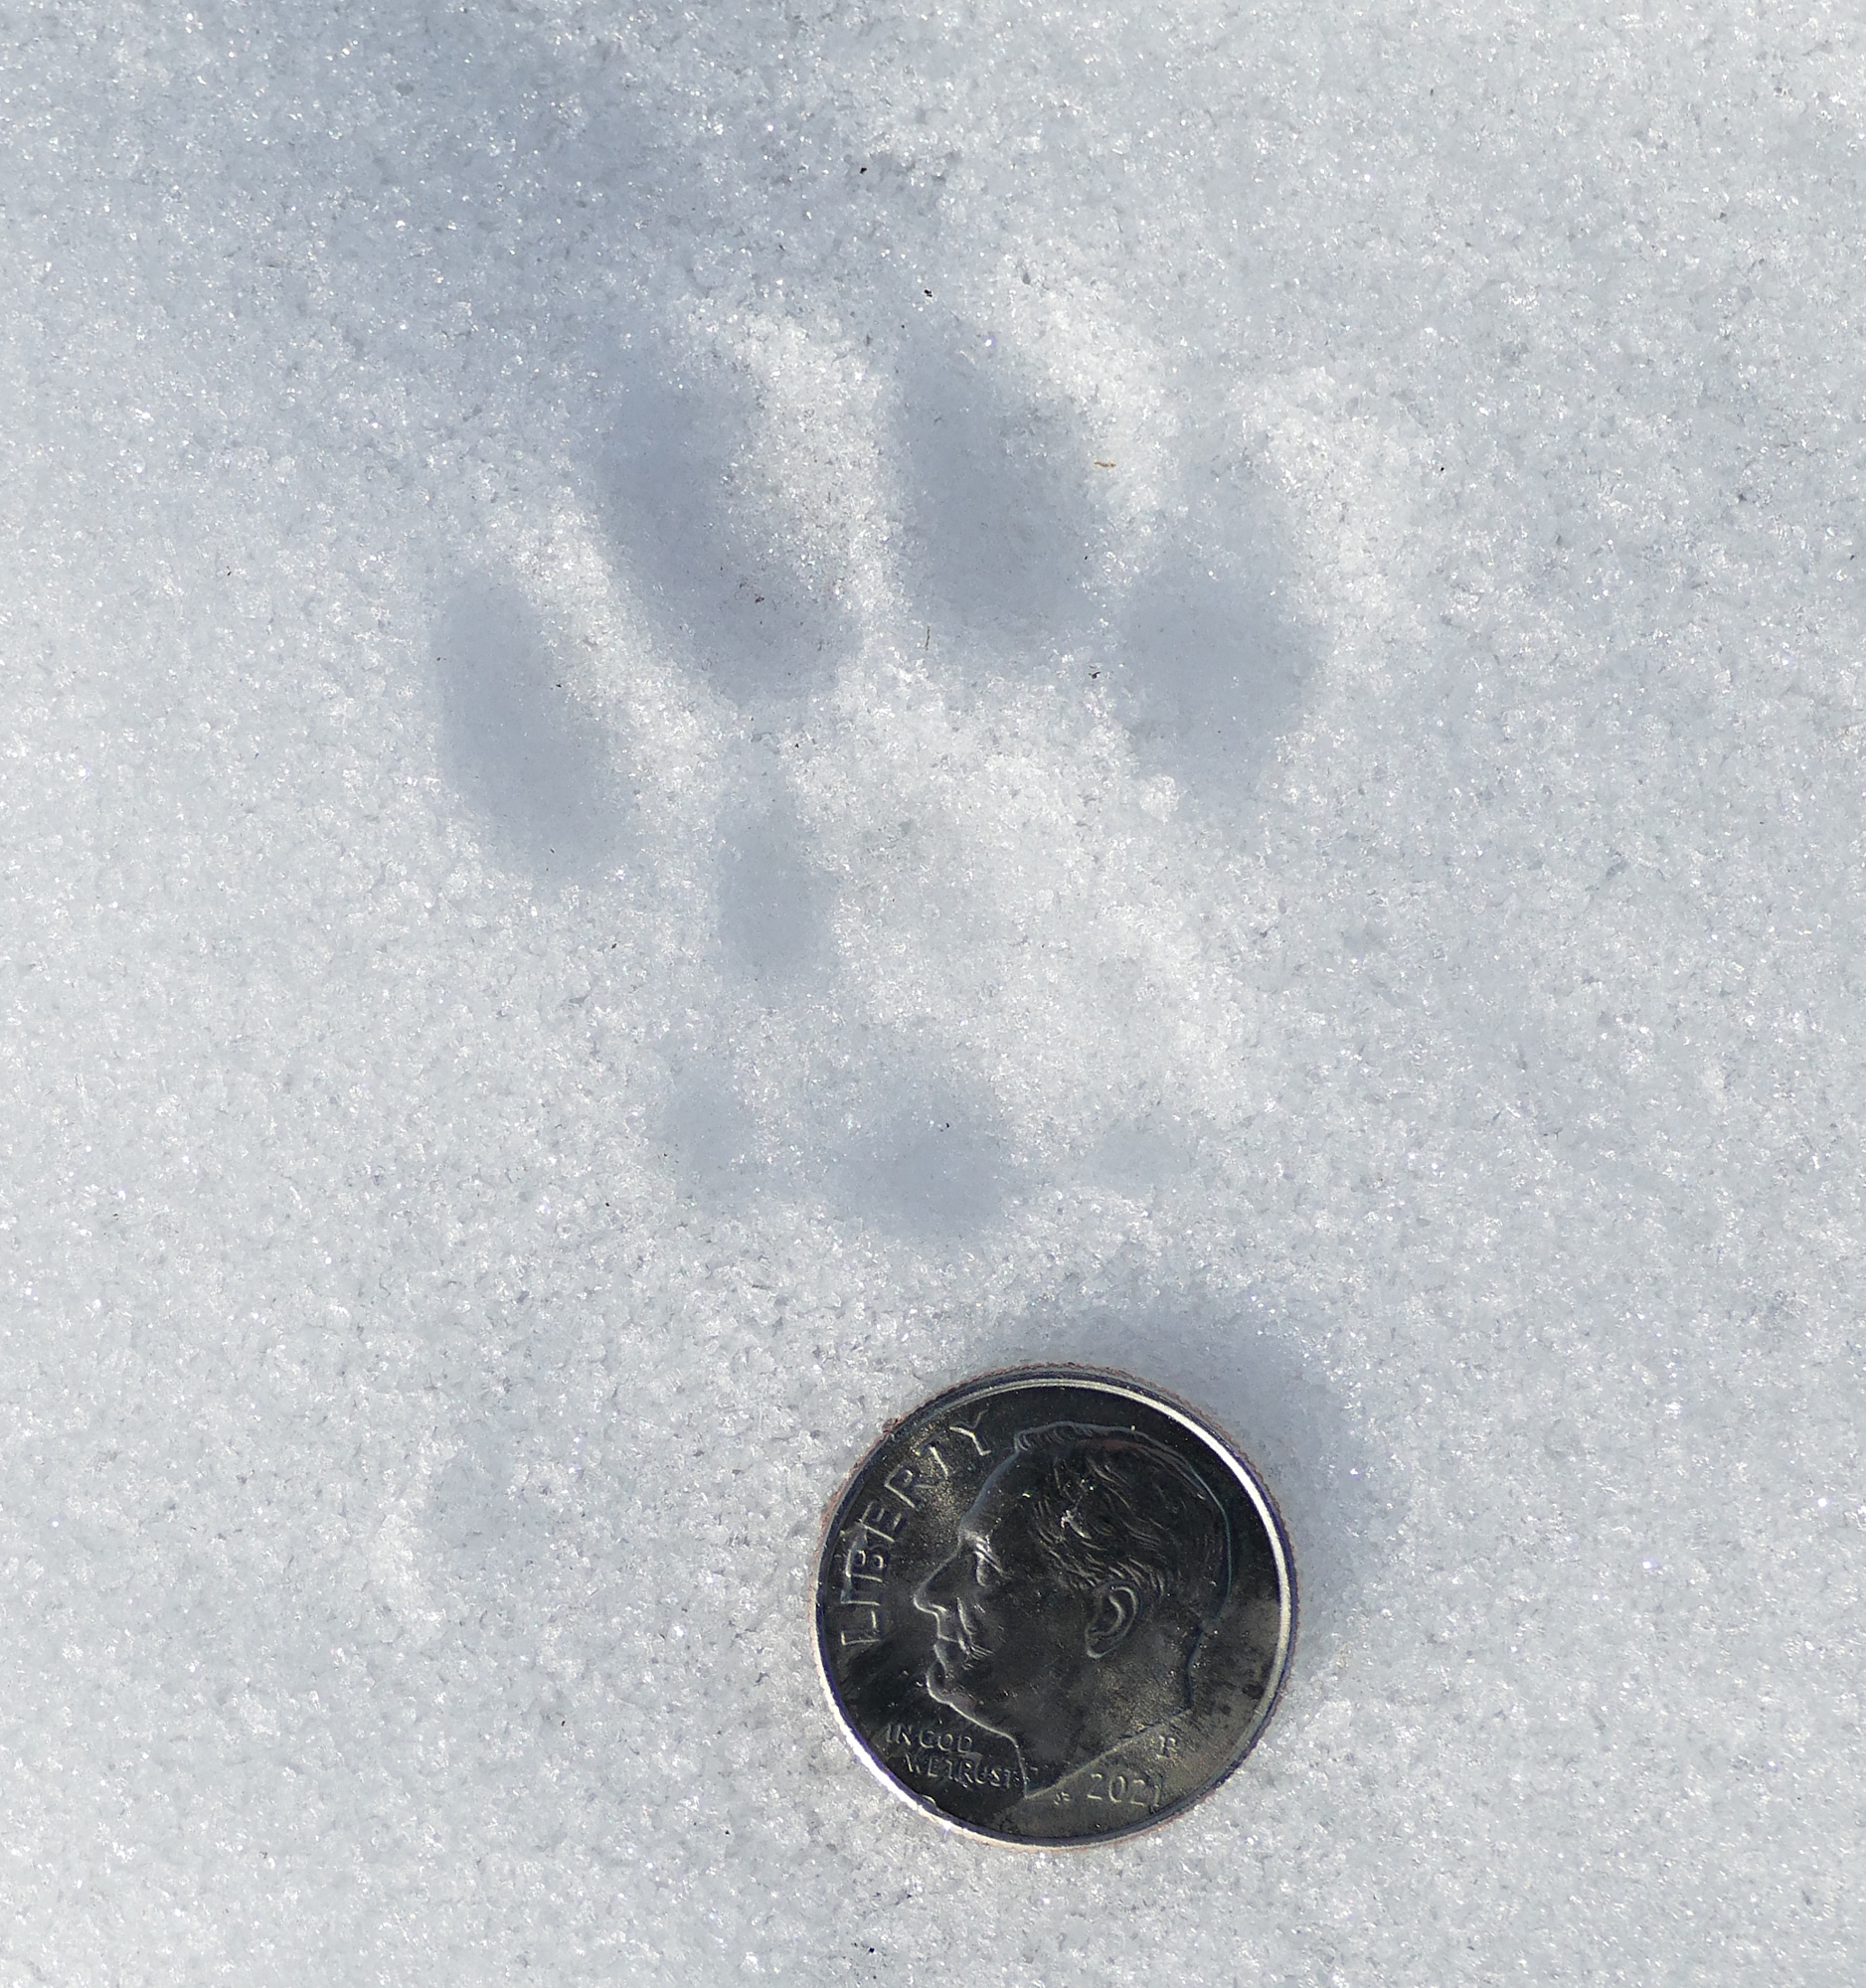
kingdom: Animalia
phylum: Chordata
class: Mammalia
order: Carnivora
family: Felidae
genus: Felis
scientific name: Felis catus
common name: Domestic cat
